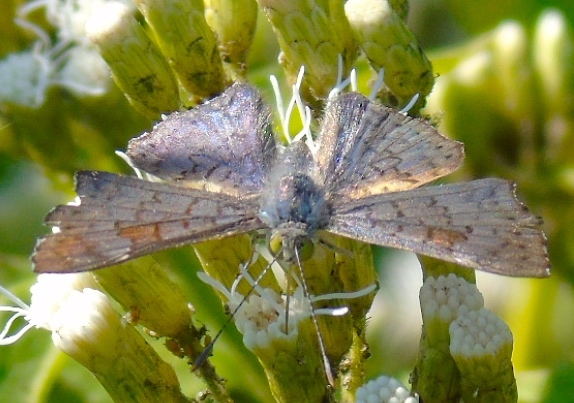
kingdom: Animalia
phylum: Arthropoda
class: Insecta
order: Lepidoptera
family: Riodinidae
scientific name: Riodinidae
